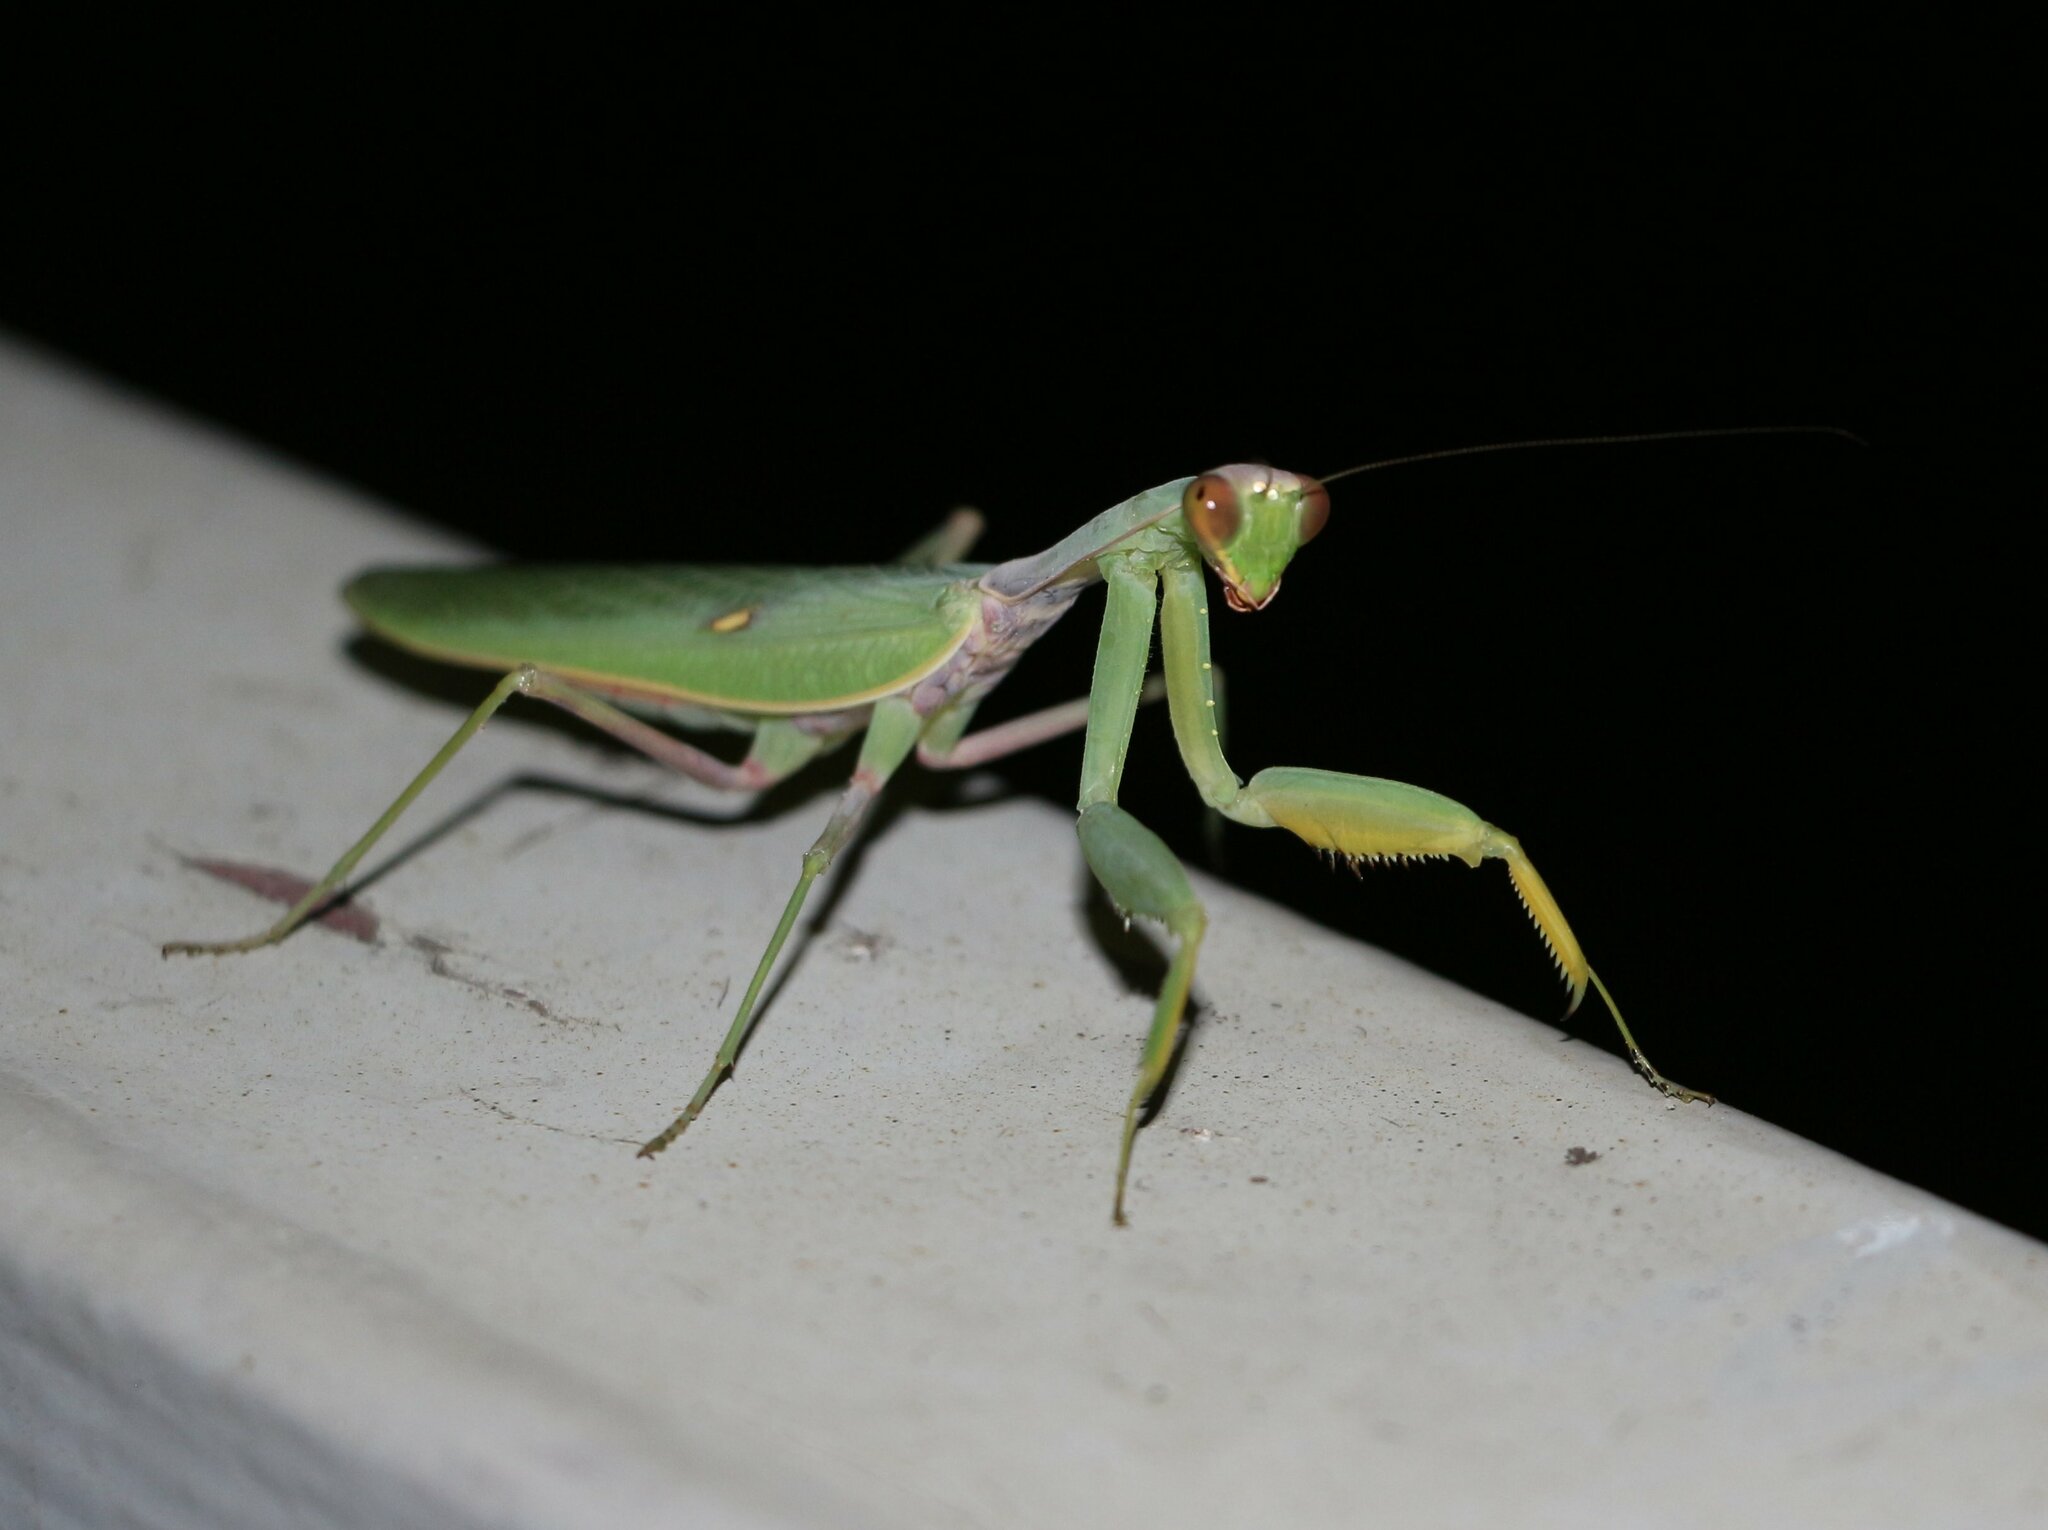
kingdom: Animalia
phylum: Arthropoda
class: Insecta
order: Mantodea
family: Mantidae
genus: Hierodula
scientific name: Hierodula transcaucasica
